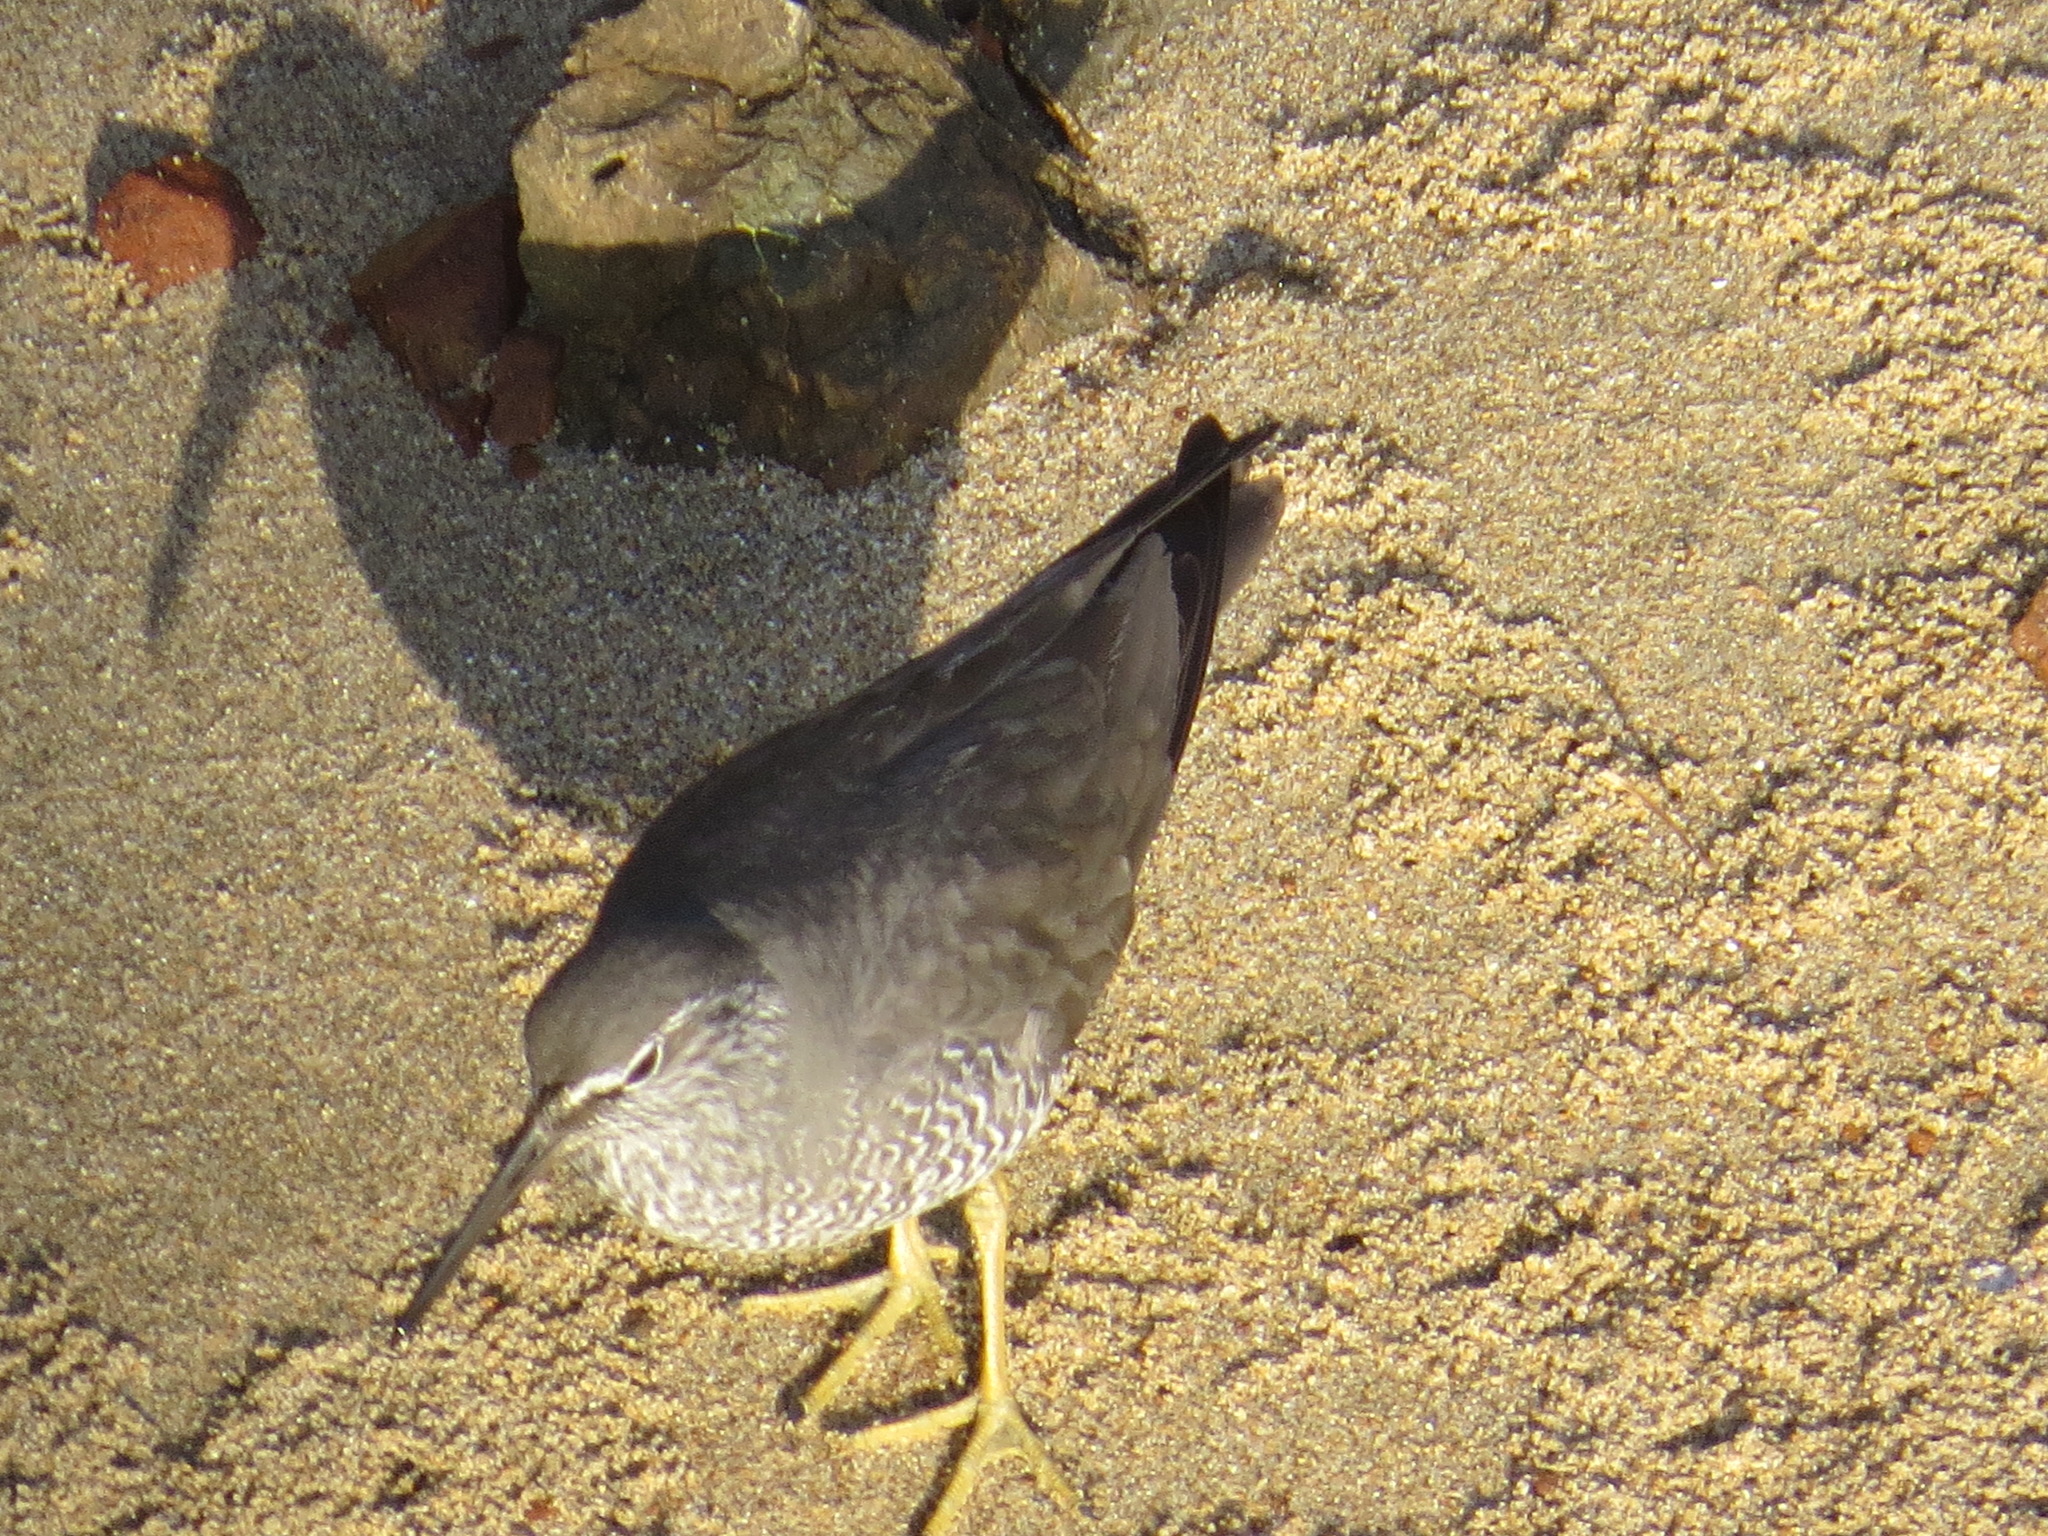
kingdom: Animalia
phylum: Chordata
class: Aves
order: Charadriiformes
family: Scolopacidae
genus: Tringa
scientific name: Tringa incana
